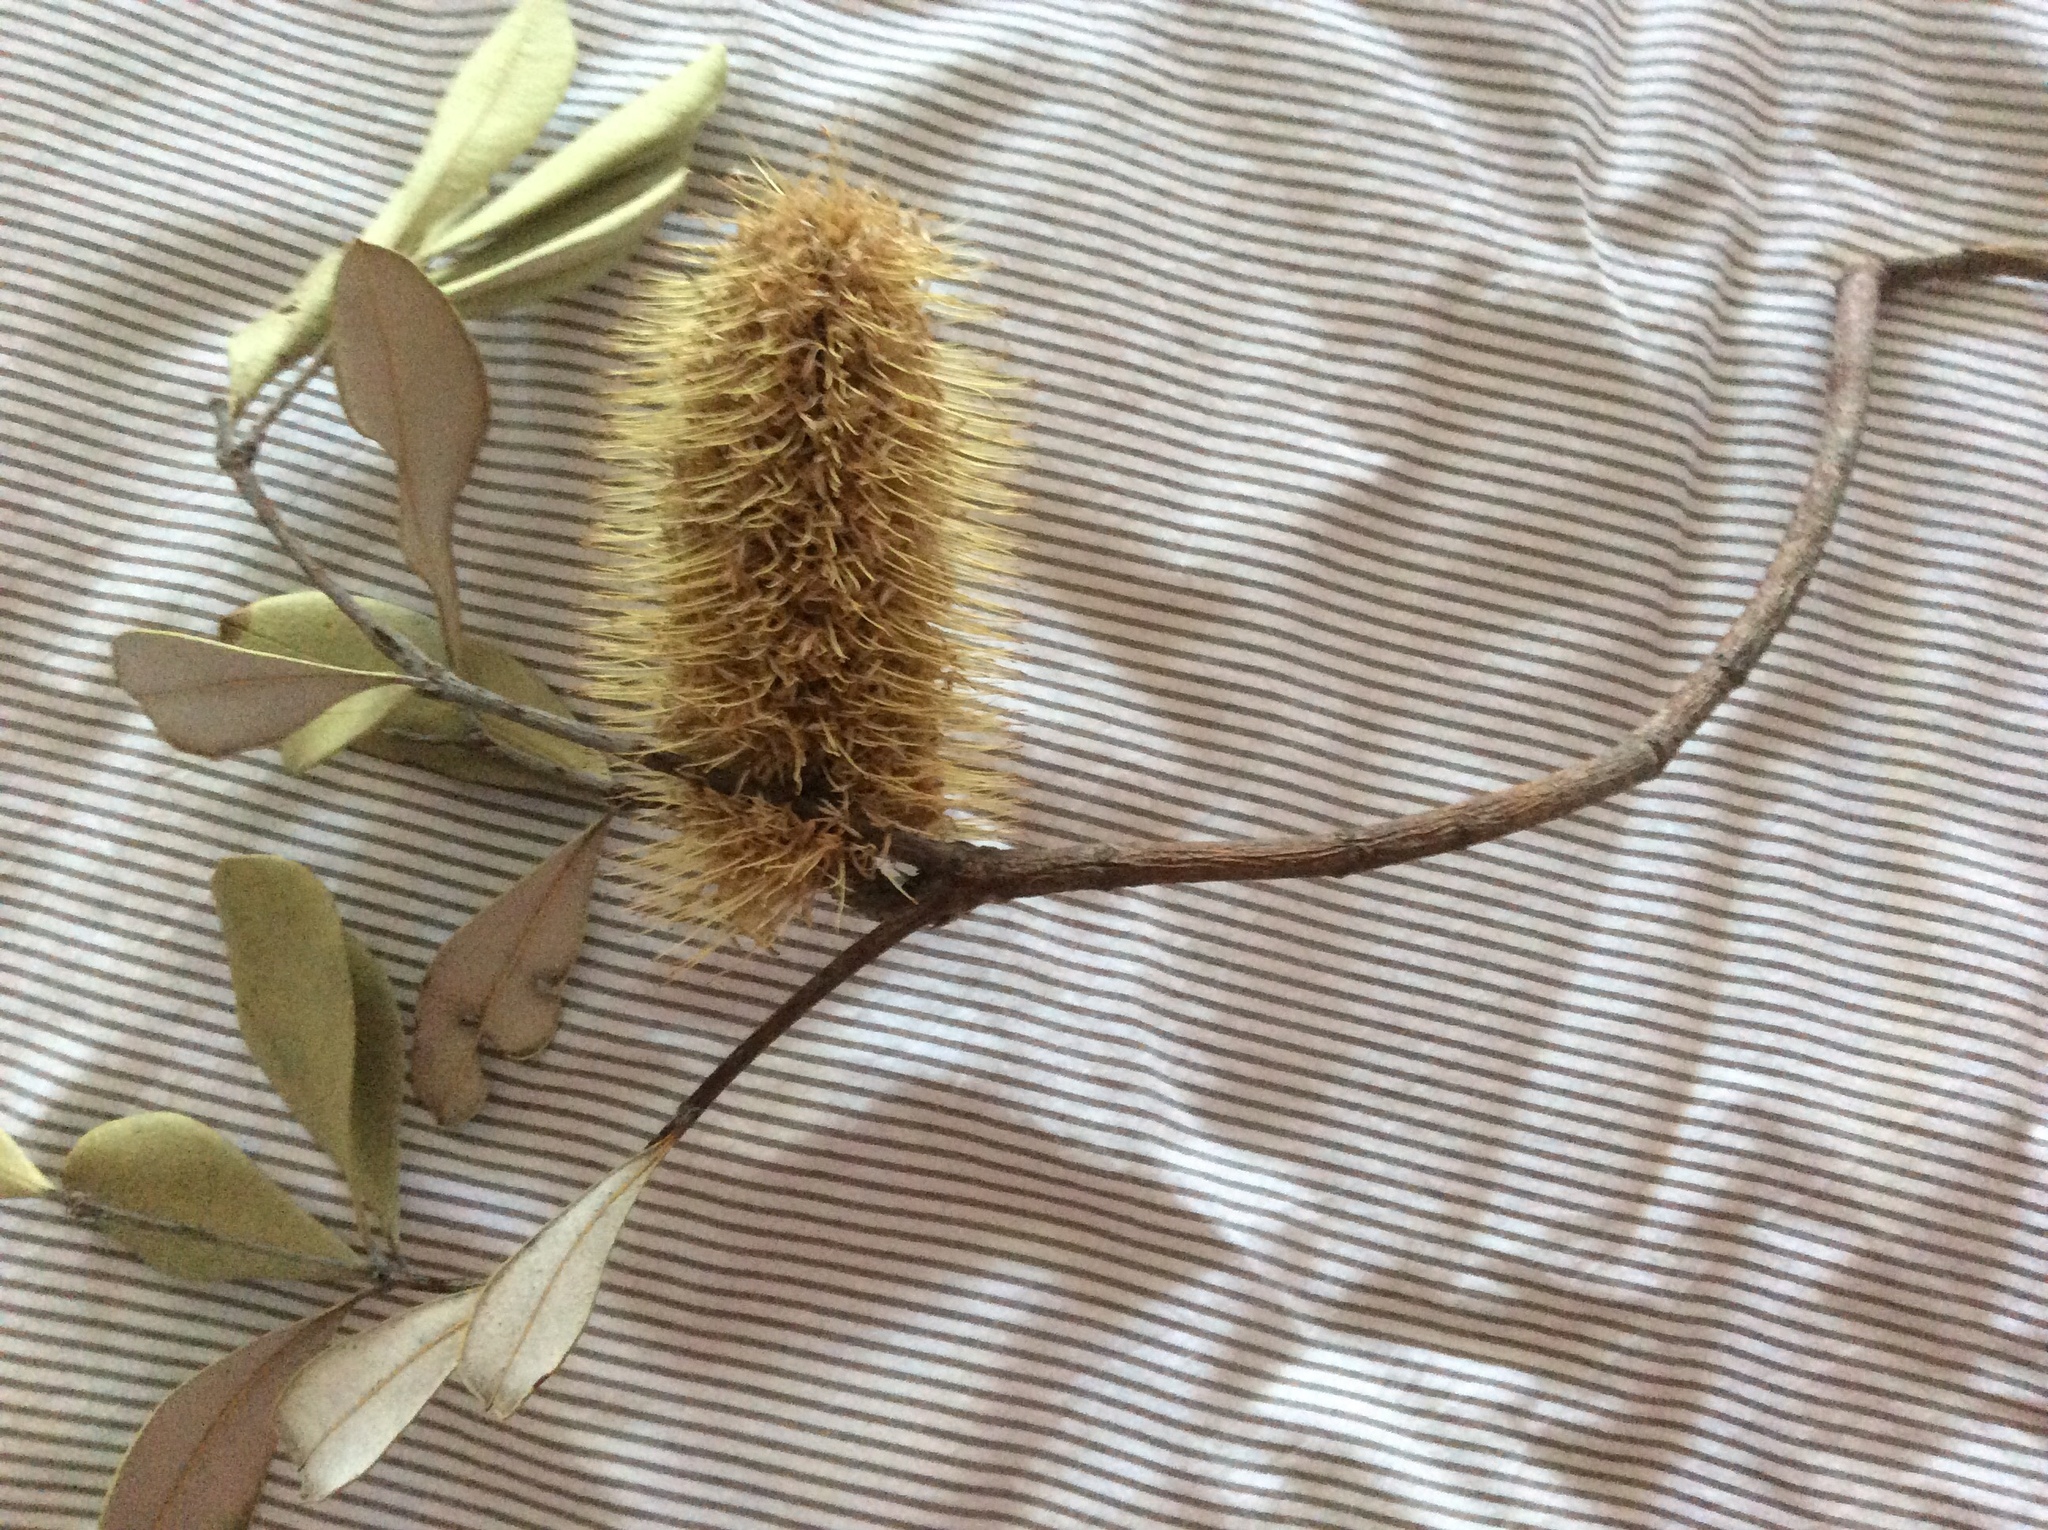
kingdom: Plantae
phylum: Tracheophyta
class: Magnoliopsida
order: Proteales
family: Proteaceae
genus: Banksia
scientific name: Banksia integrifolia
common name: White-honeysuckle
